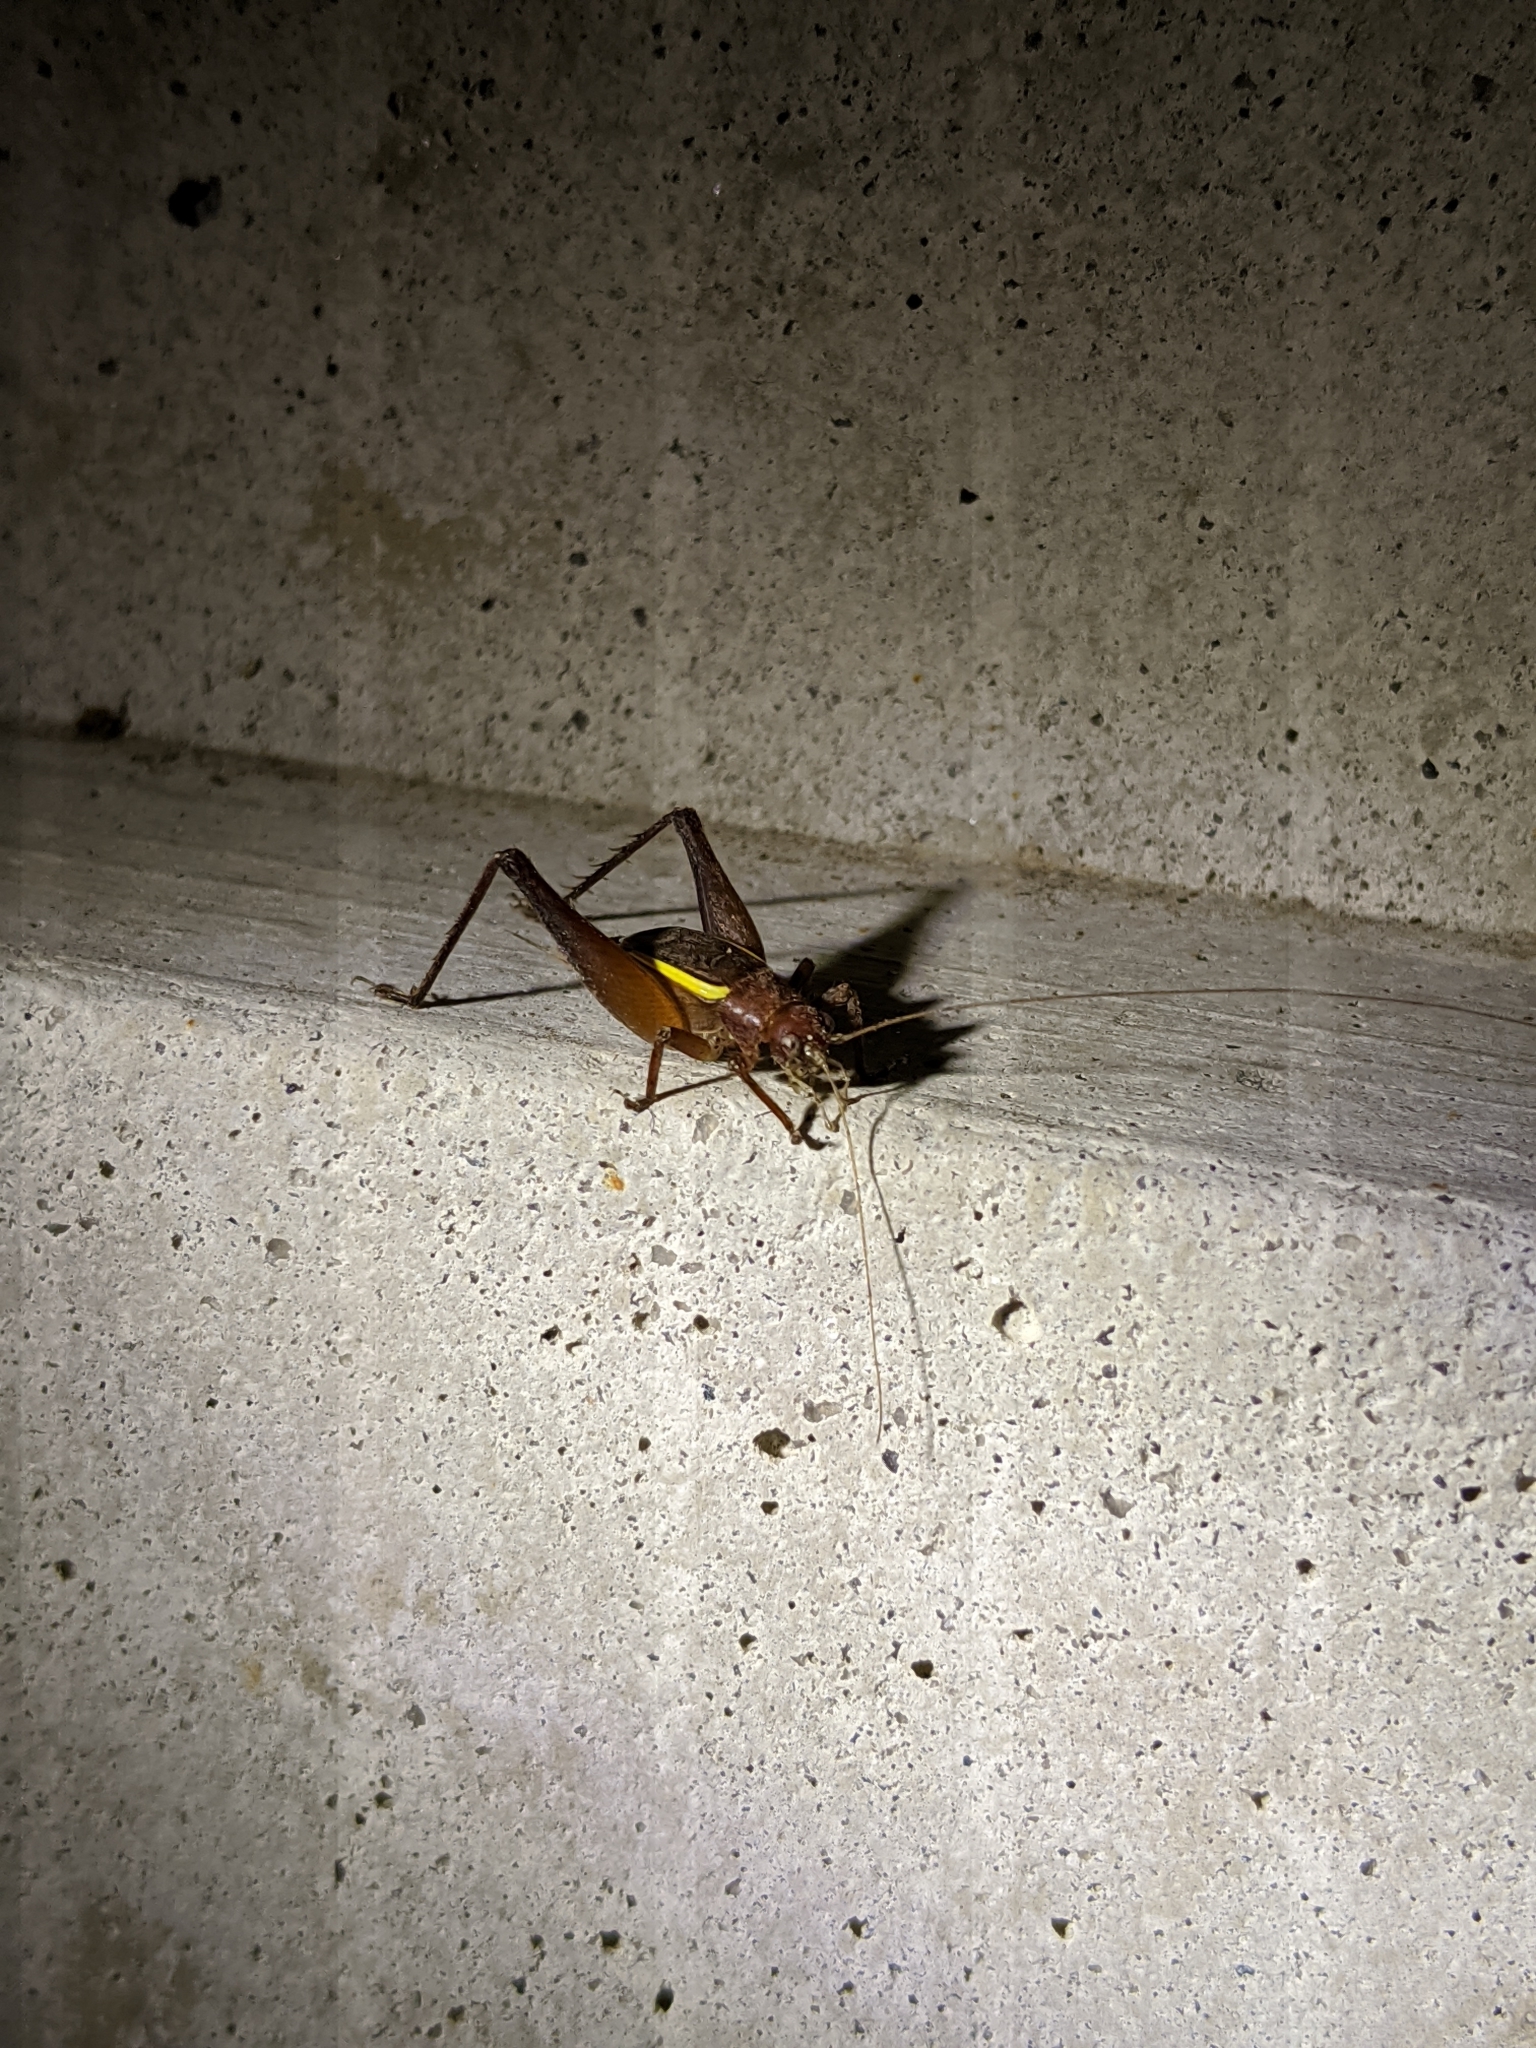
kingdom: Animalia
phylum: Arthropoda
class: Insecta
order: Orthoptera
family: Gryllidae
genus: Hapithus
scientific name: Hapithus agitator
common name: Restless bush cricket
